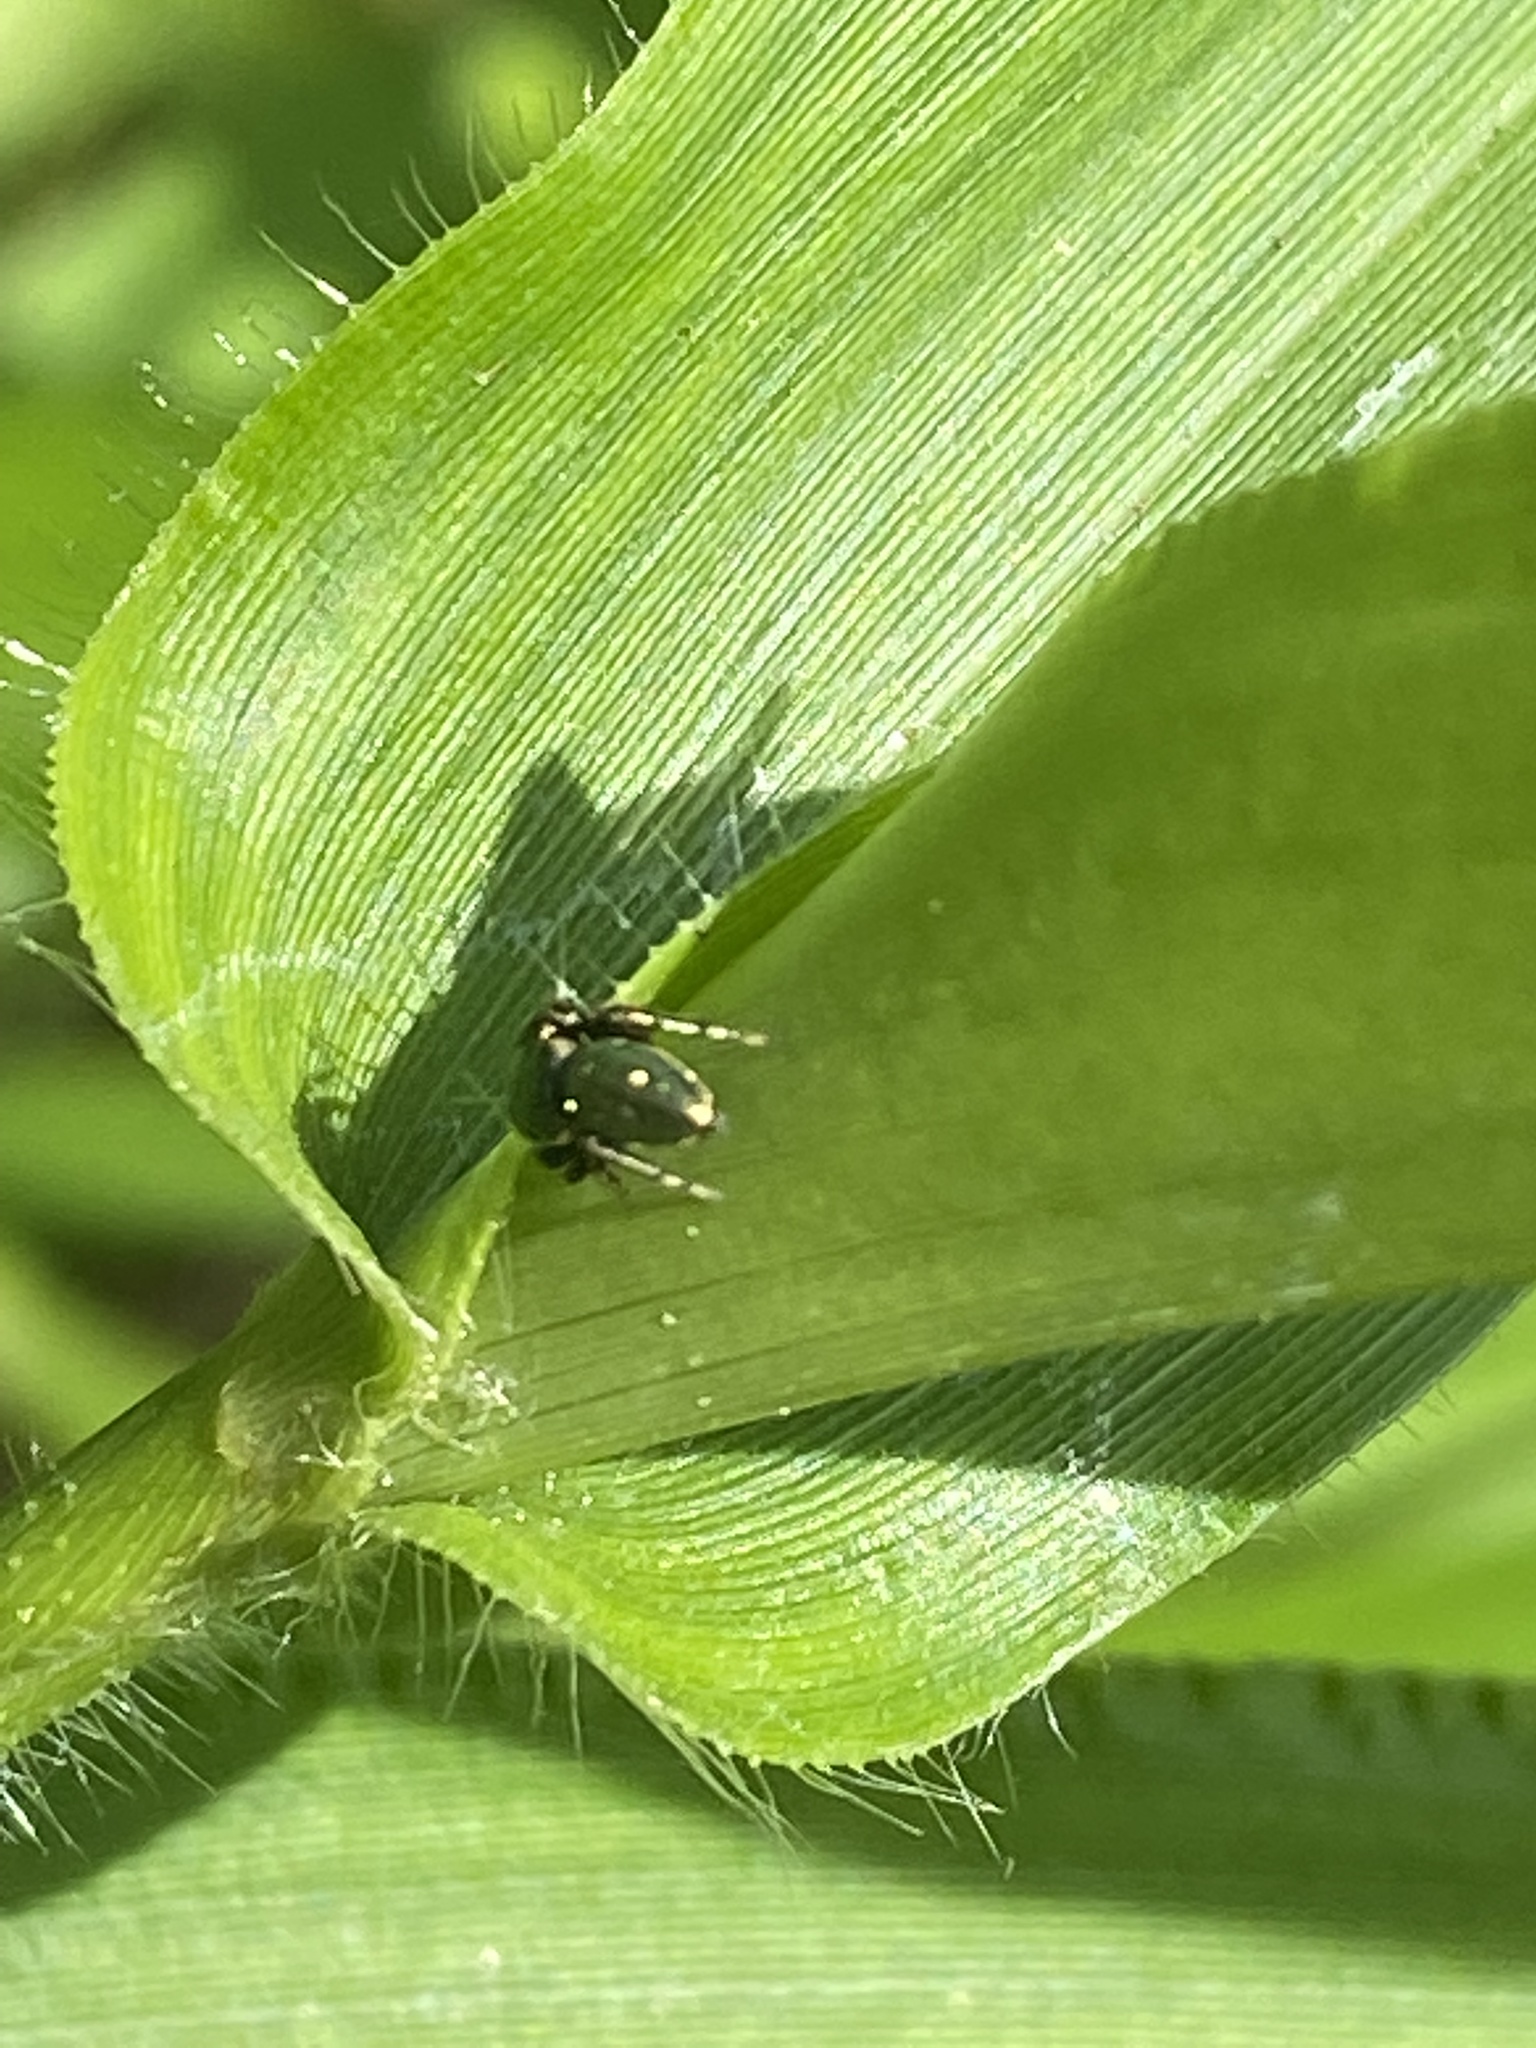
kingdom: Animalia
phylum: Arthropoda
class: Arachnida
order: Araneae
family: Salticidae
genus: Sassacus
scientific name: Sassacus papenhoei
